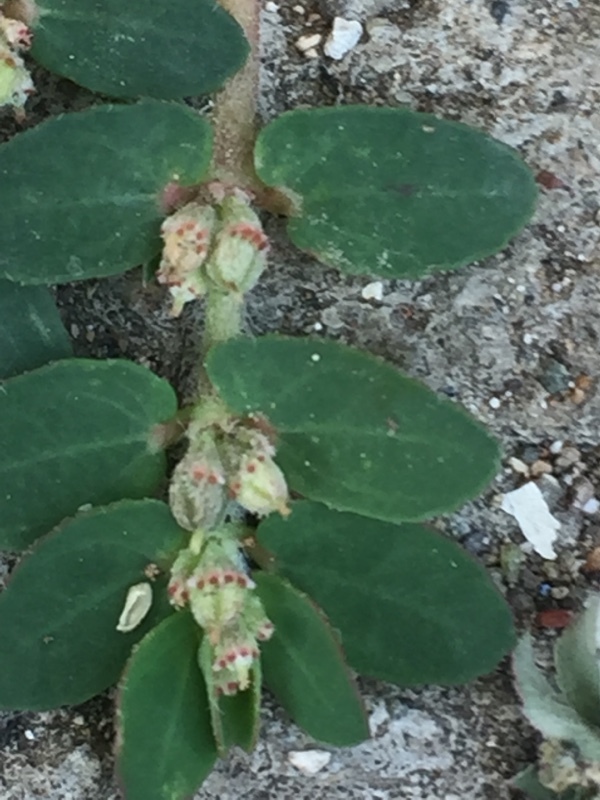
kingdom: Plantae
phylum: Tracheophyta
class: Magnoliopsida
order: Malpighiales
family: Euphorbiaceae
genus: Euphorbia
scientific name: Euphorbia thymifolia
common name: Gulf sandmat
